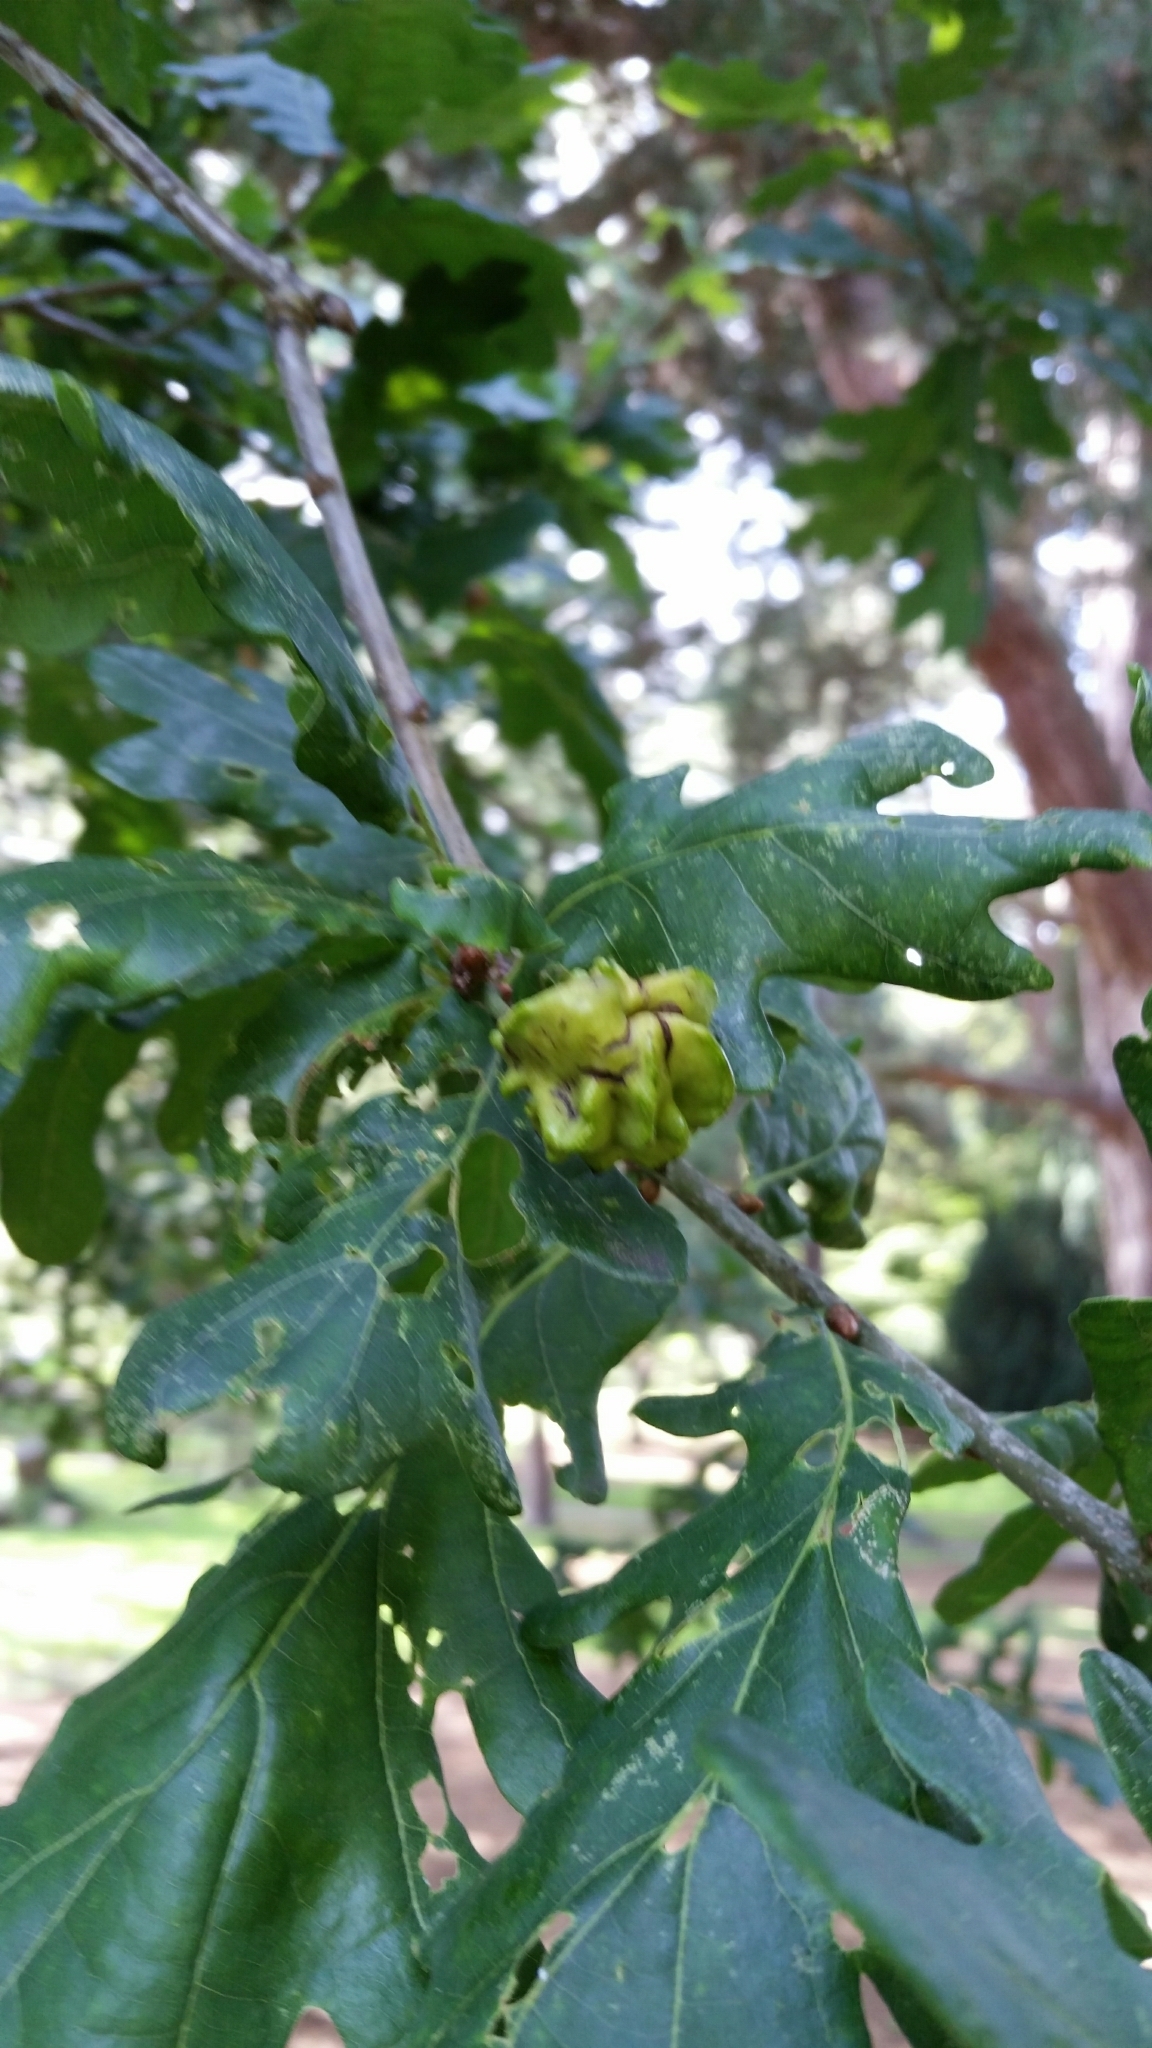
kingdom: Animalia
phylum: Arthropoda
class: Insecta
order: Hymenoptera
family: Cynipidae
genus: Andricus
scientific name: Andricus quercuscalicis
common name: Knopper gall
